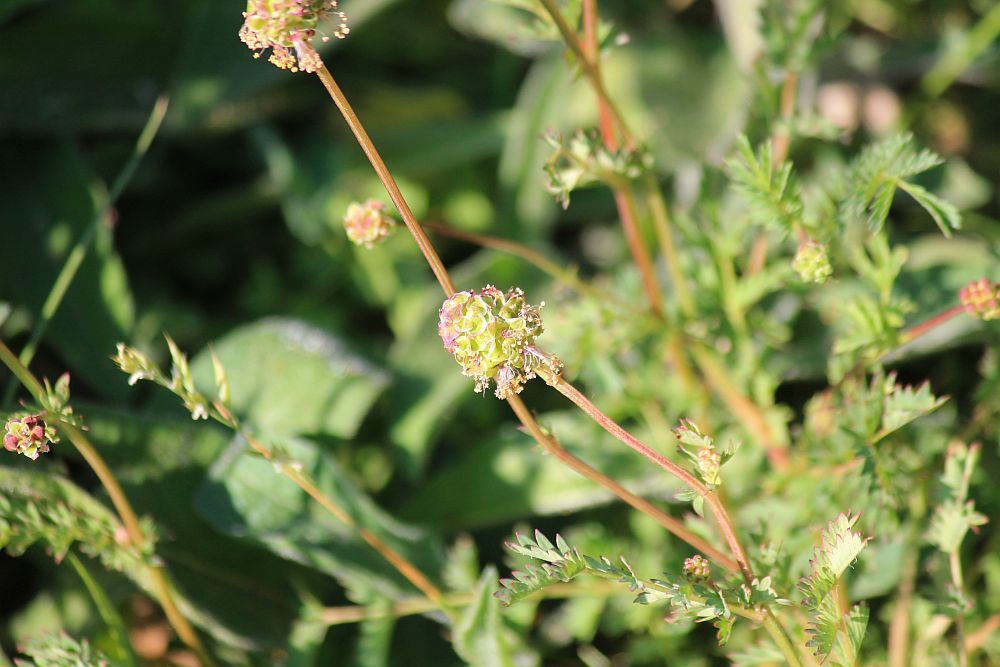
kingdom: Plantae
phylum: Tracheophyta
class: Magnoliopsida
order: Rosales
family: Rosaceae
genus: Poterium
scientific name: Poterium sanguisorba
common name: Salad burnet
